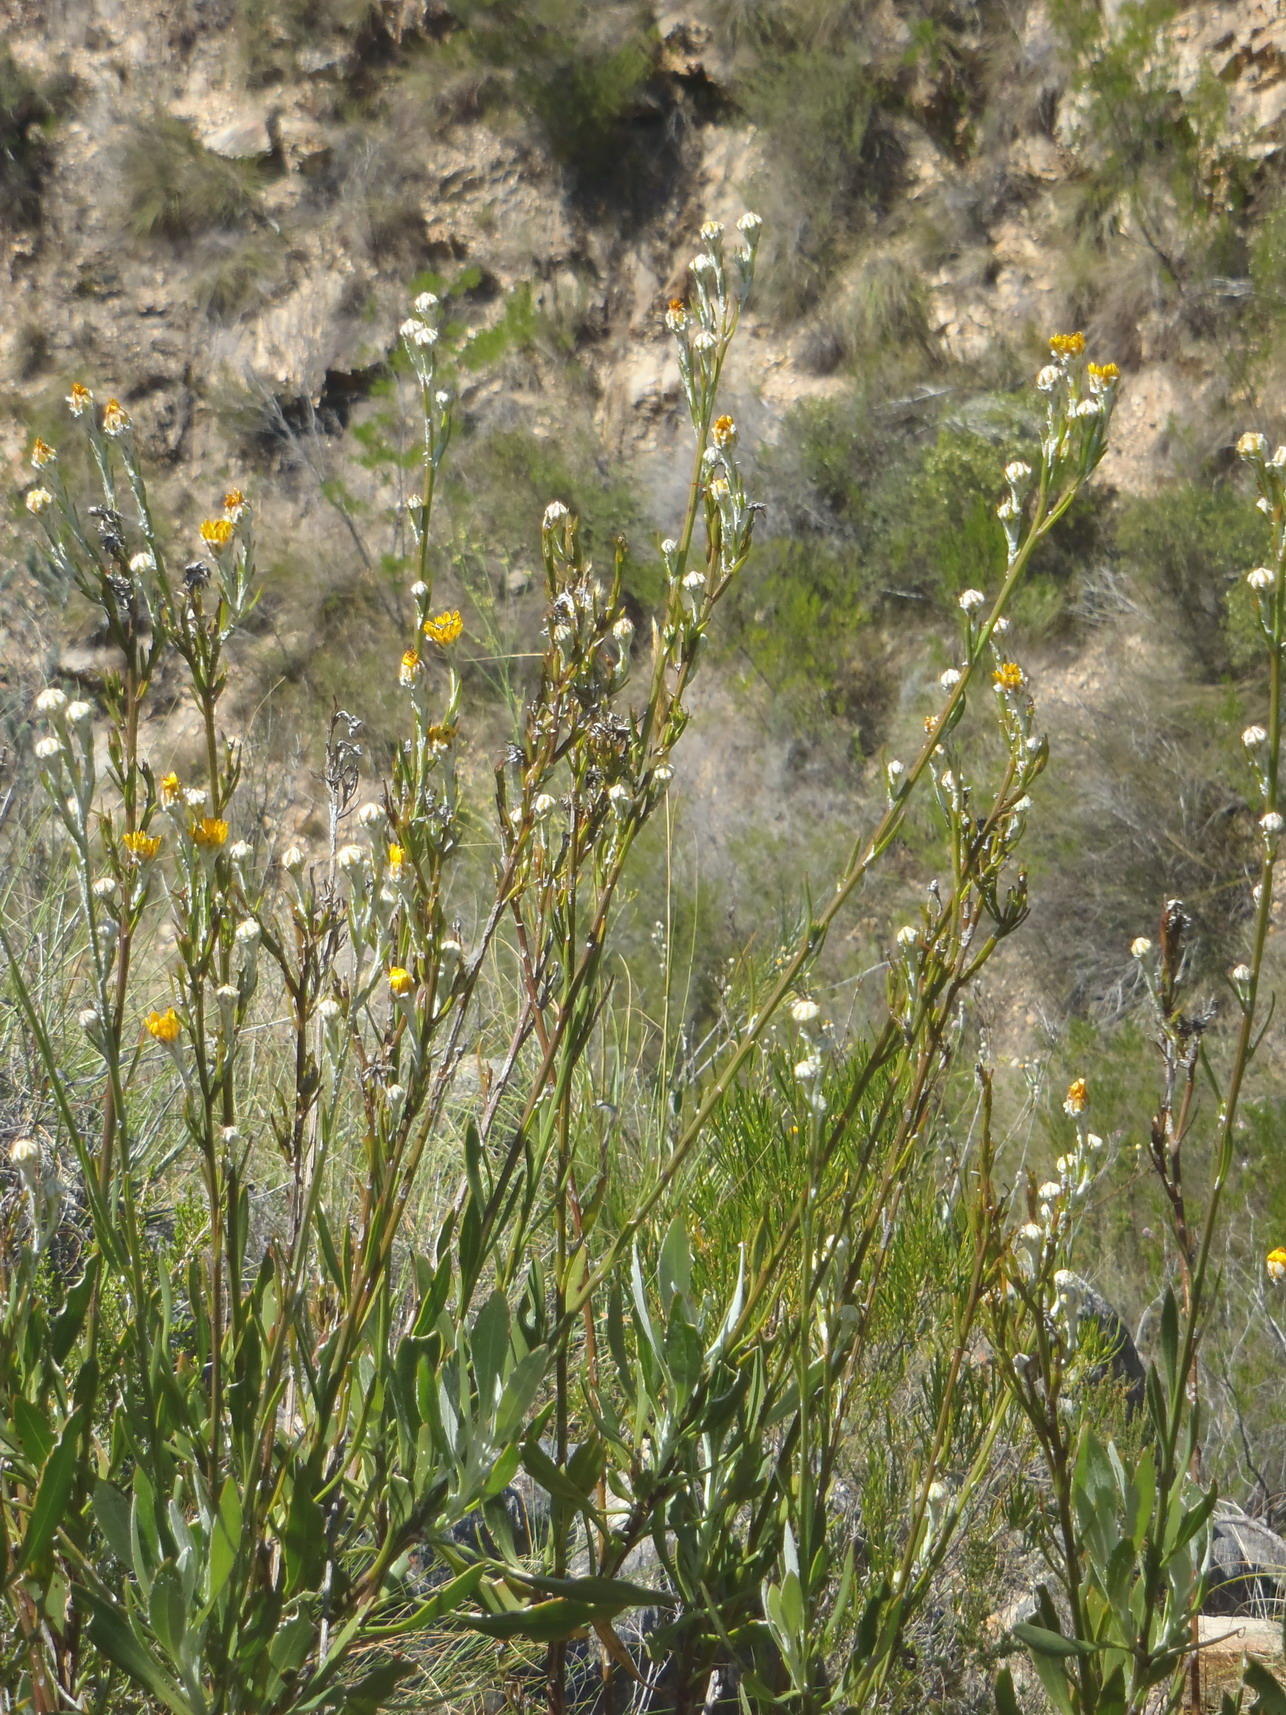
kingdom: Plantae
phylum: Tracheophyta
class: Magnoliopsida
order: Asterales
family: Asteraceae
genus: Osteospermum
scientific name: Osteospermum junceum
